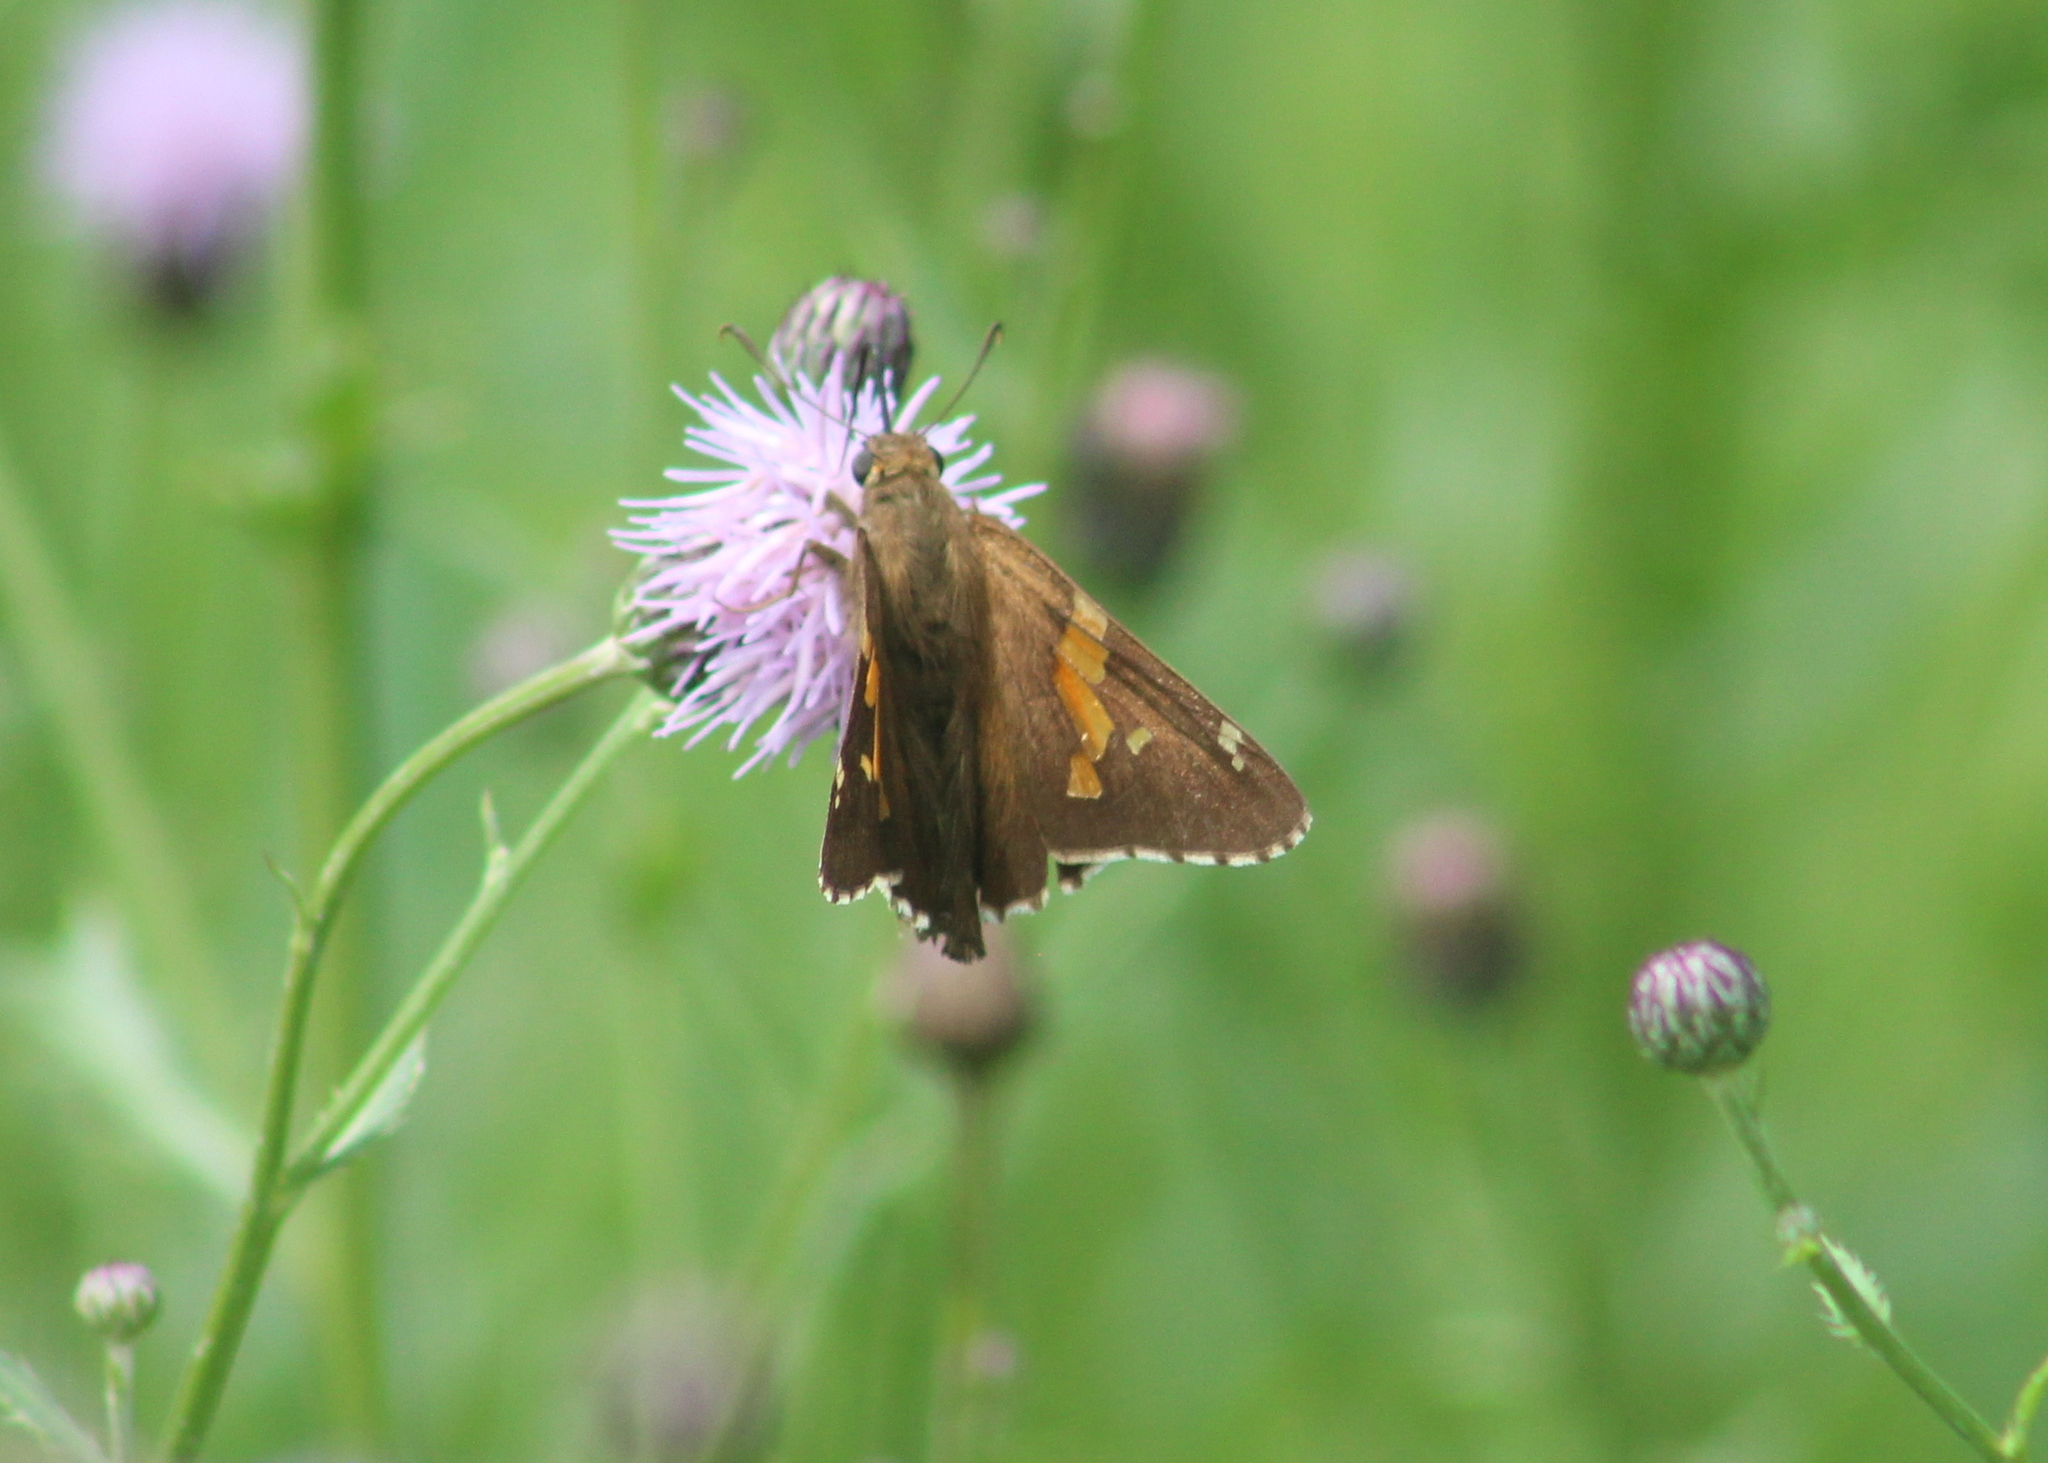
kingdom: Animalia
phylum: Arthropoda
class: Insecta
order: Lepidoptera
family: Hesperiidae
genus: Epargyreus
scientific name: Epargyreus clarus
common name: Silver-spotted skipper
